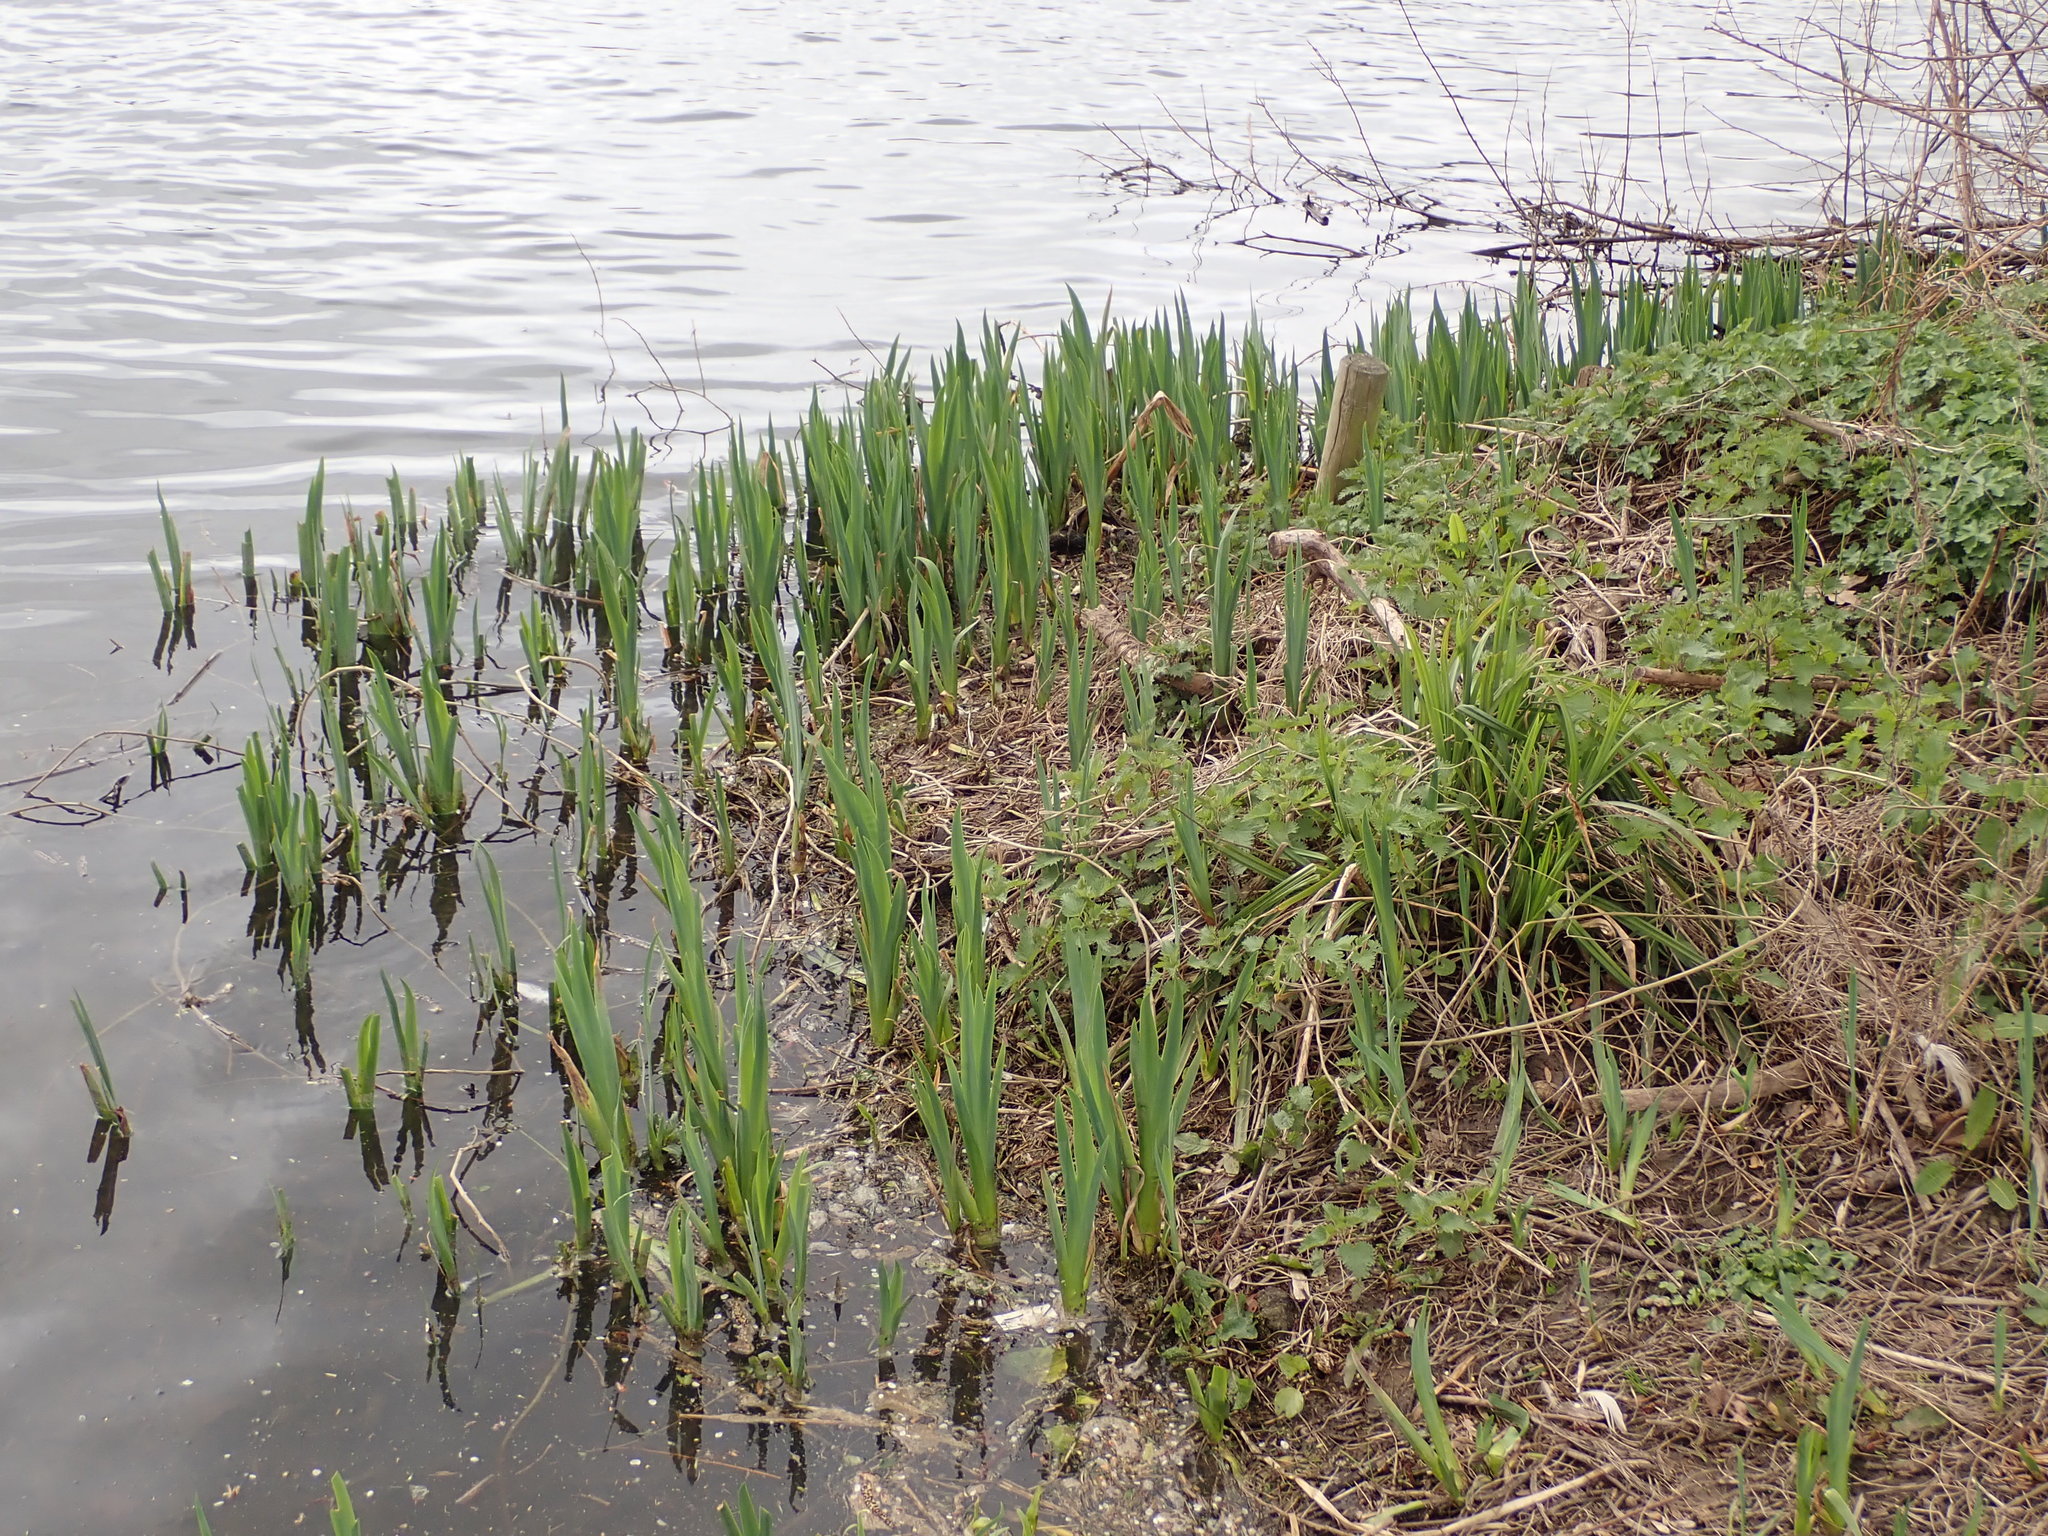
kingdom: Plantae
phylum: Tracheophyta
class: Liliopsida
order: Asparagales
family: Iridaceae
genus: Iris
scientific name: Iris pseudacorus
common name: Yellow flag
